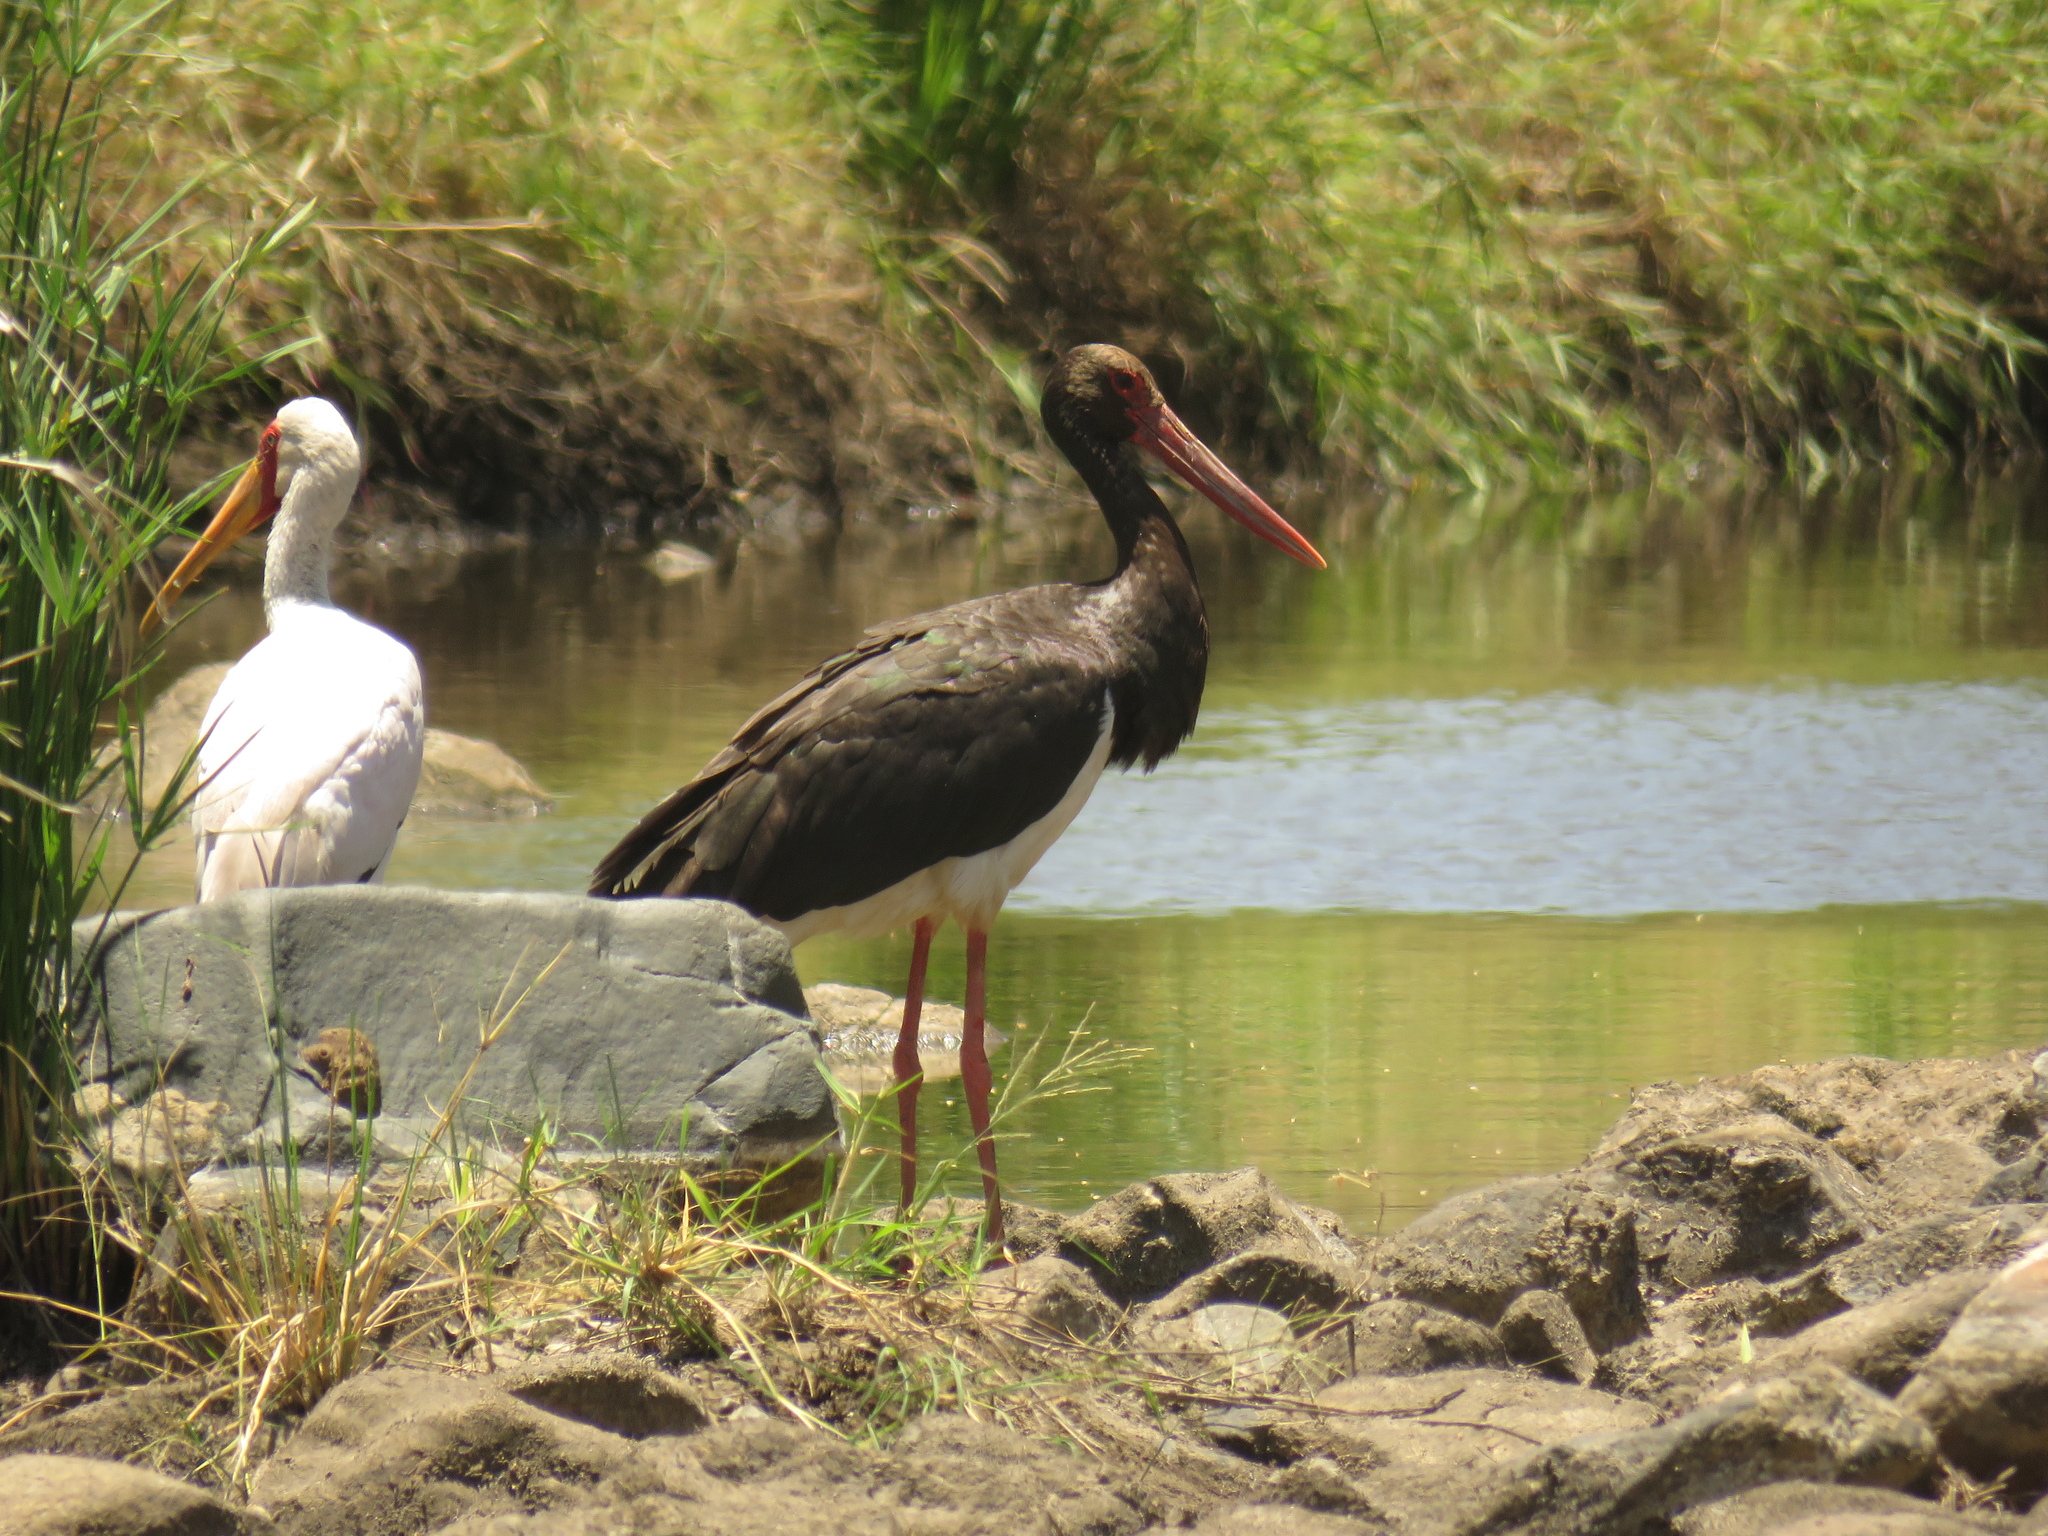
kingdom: Animalia
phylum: Chordata
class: Aves
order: Ciconiiformes
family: Ciconiidae
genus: Ciconia
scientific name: Ciconia nigra
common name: Black stork
